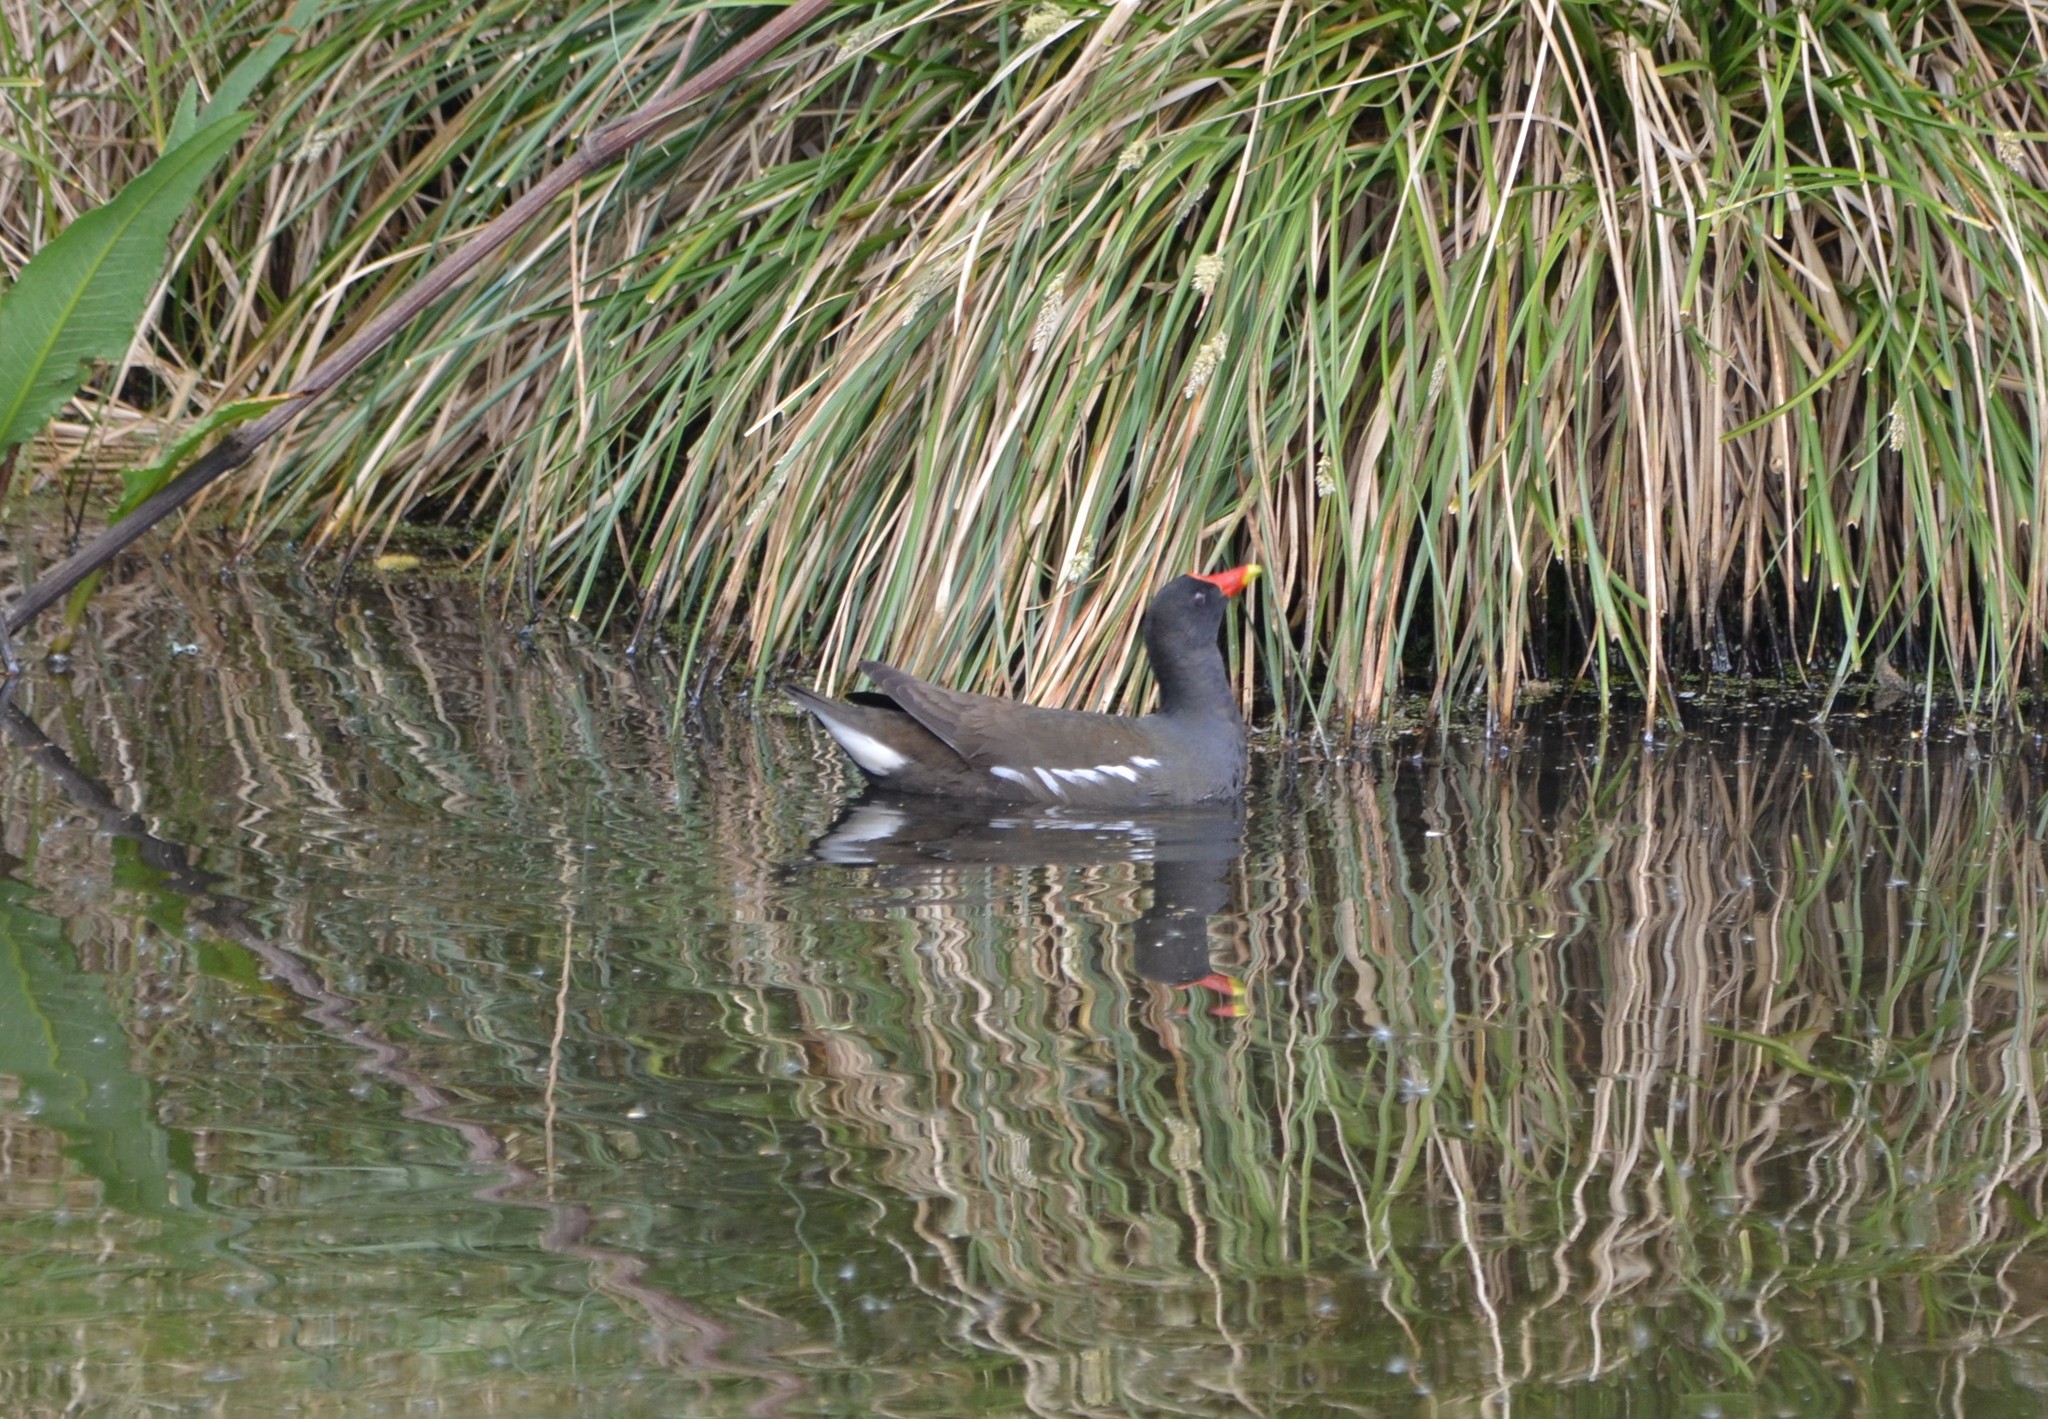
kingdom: Animalia
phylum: Chordata
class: Aves
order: Gruiformes
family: Rallidae
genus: Gallinula
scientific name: Gallinula chloropus
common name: Common moorhen
